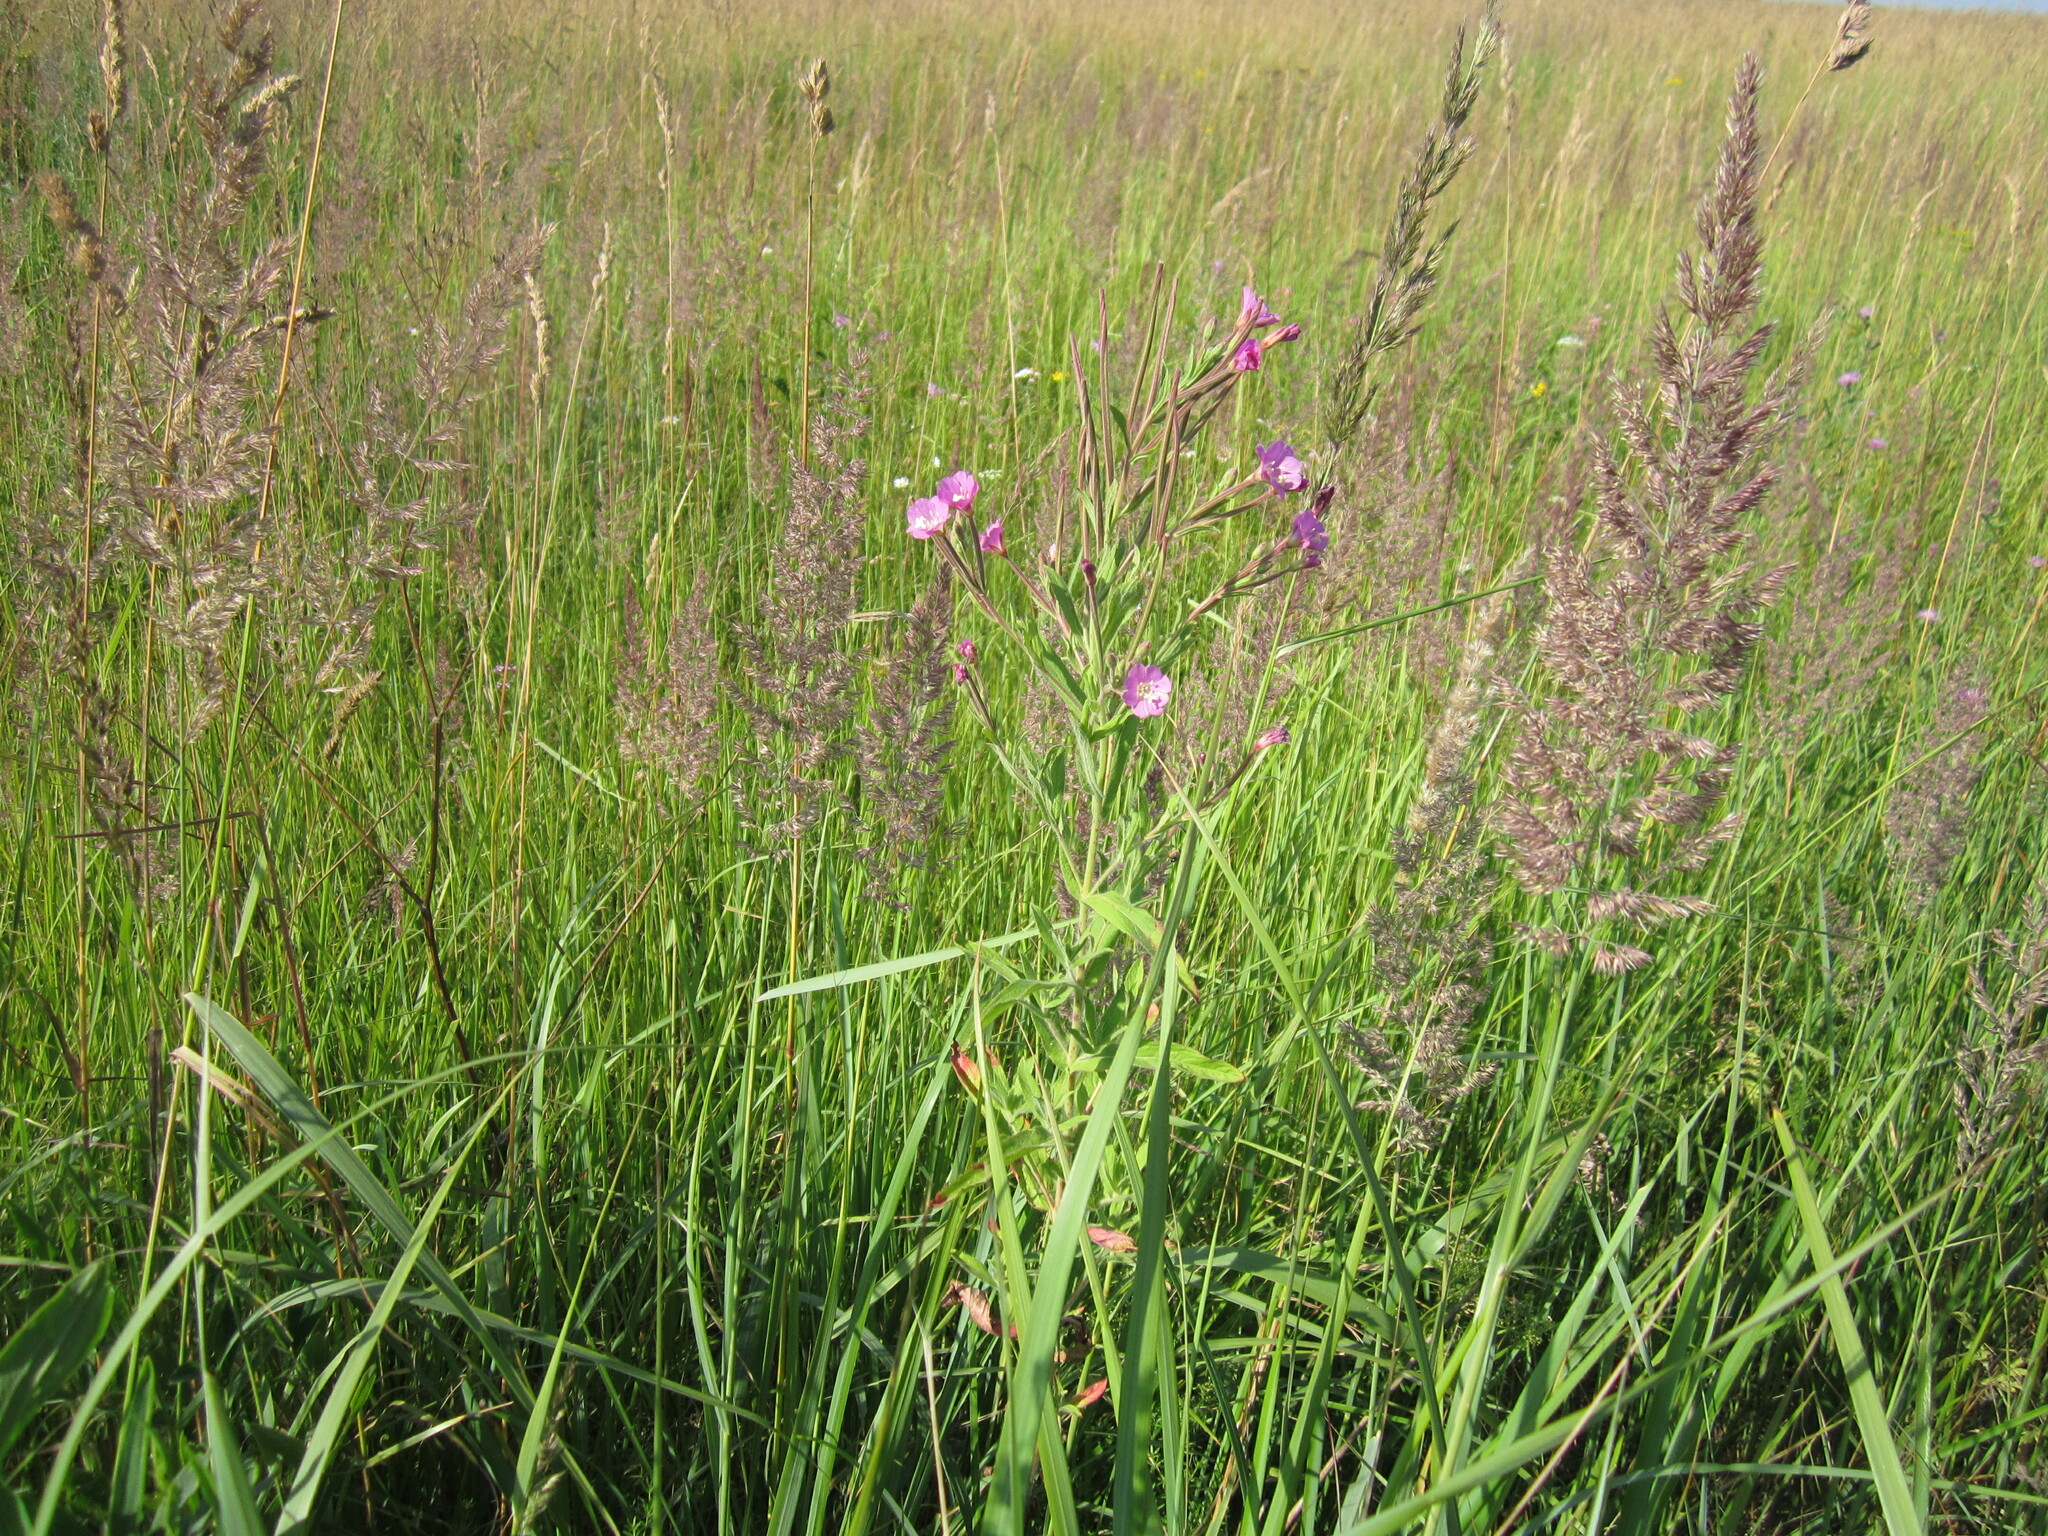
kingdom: Plantae
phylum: Tracheophyta
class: Magnoliopsida
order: Myrtales
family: Onagraceae
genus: Epilobium
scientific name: Epilobium hirsutum
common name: Great willowherb
